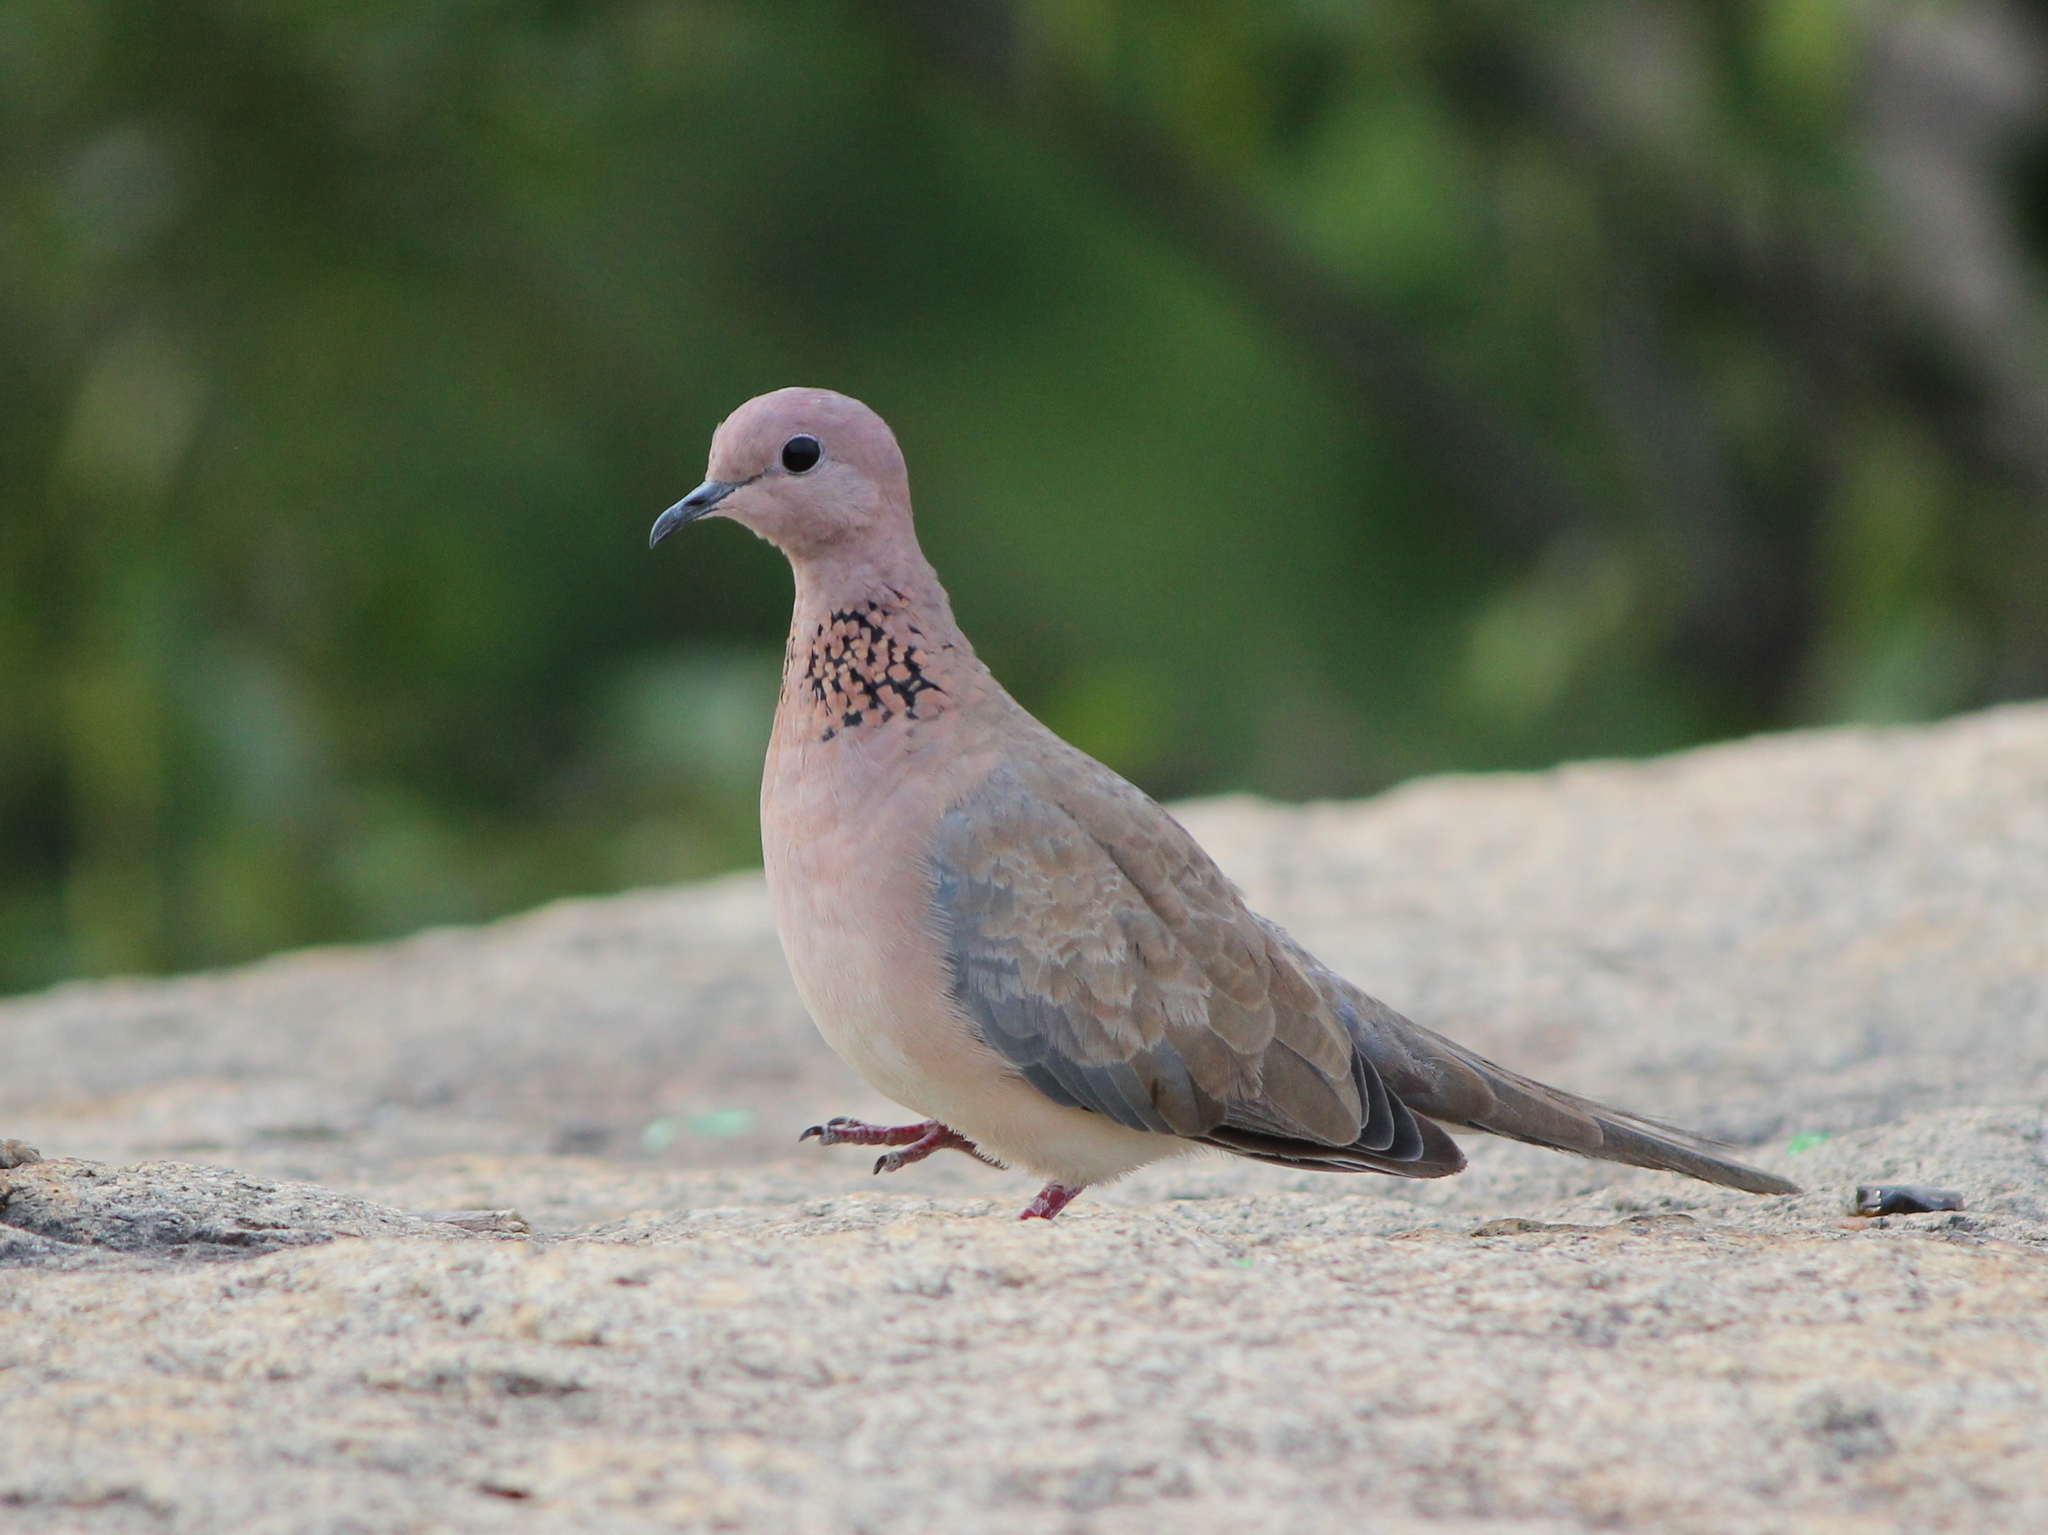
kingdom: Animalia
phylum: Chordata
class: Aves
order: Columbiformes
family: Columbidae
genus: Spilopelia
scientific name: Spilopelia senegalensis
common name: Laughing dove
